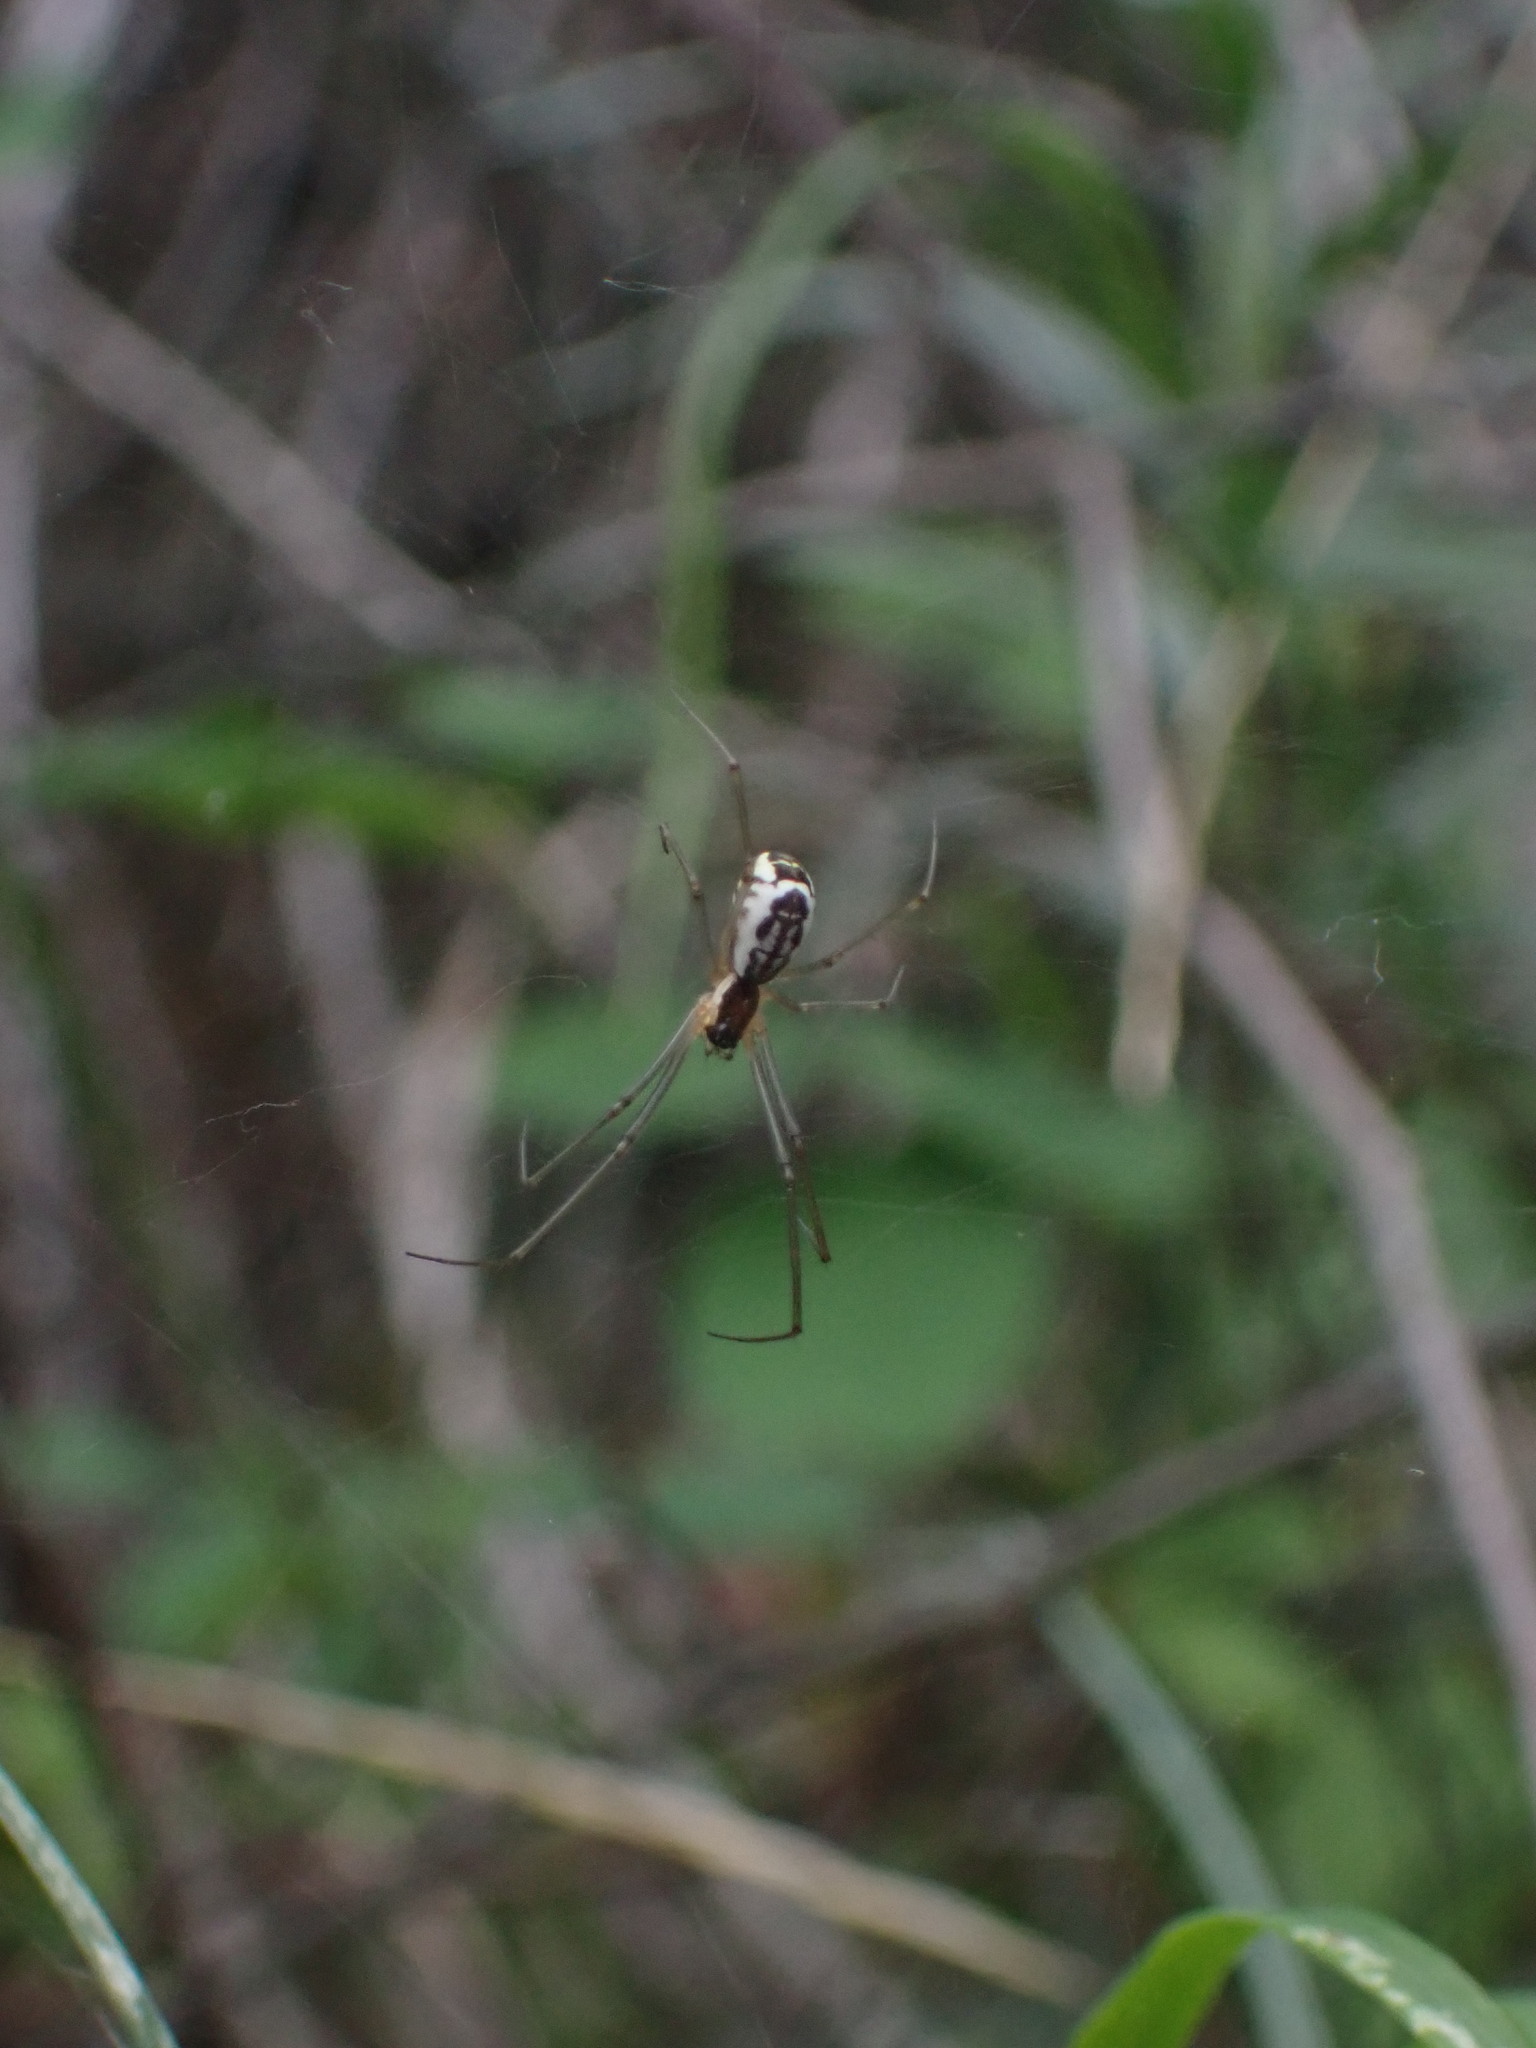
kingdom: Animalia
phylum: Arthropoda
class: Arachnida
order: Araneae
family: Linyphiidae
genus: Neriene
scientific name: Neriene radiata
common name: Filmy dome spider
